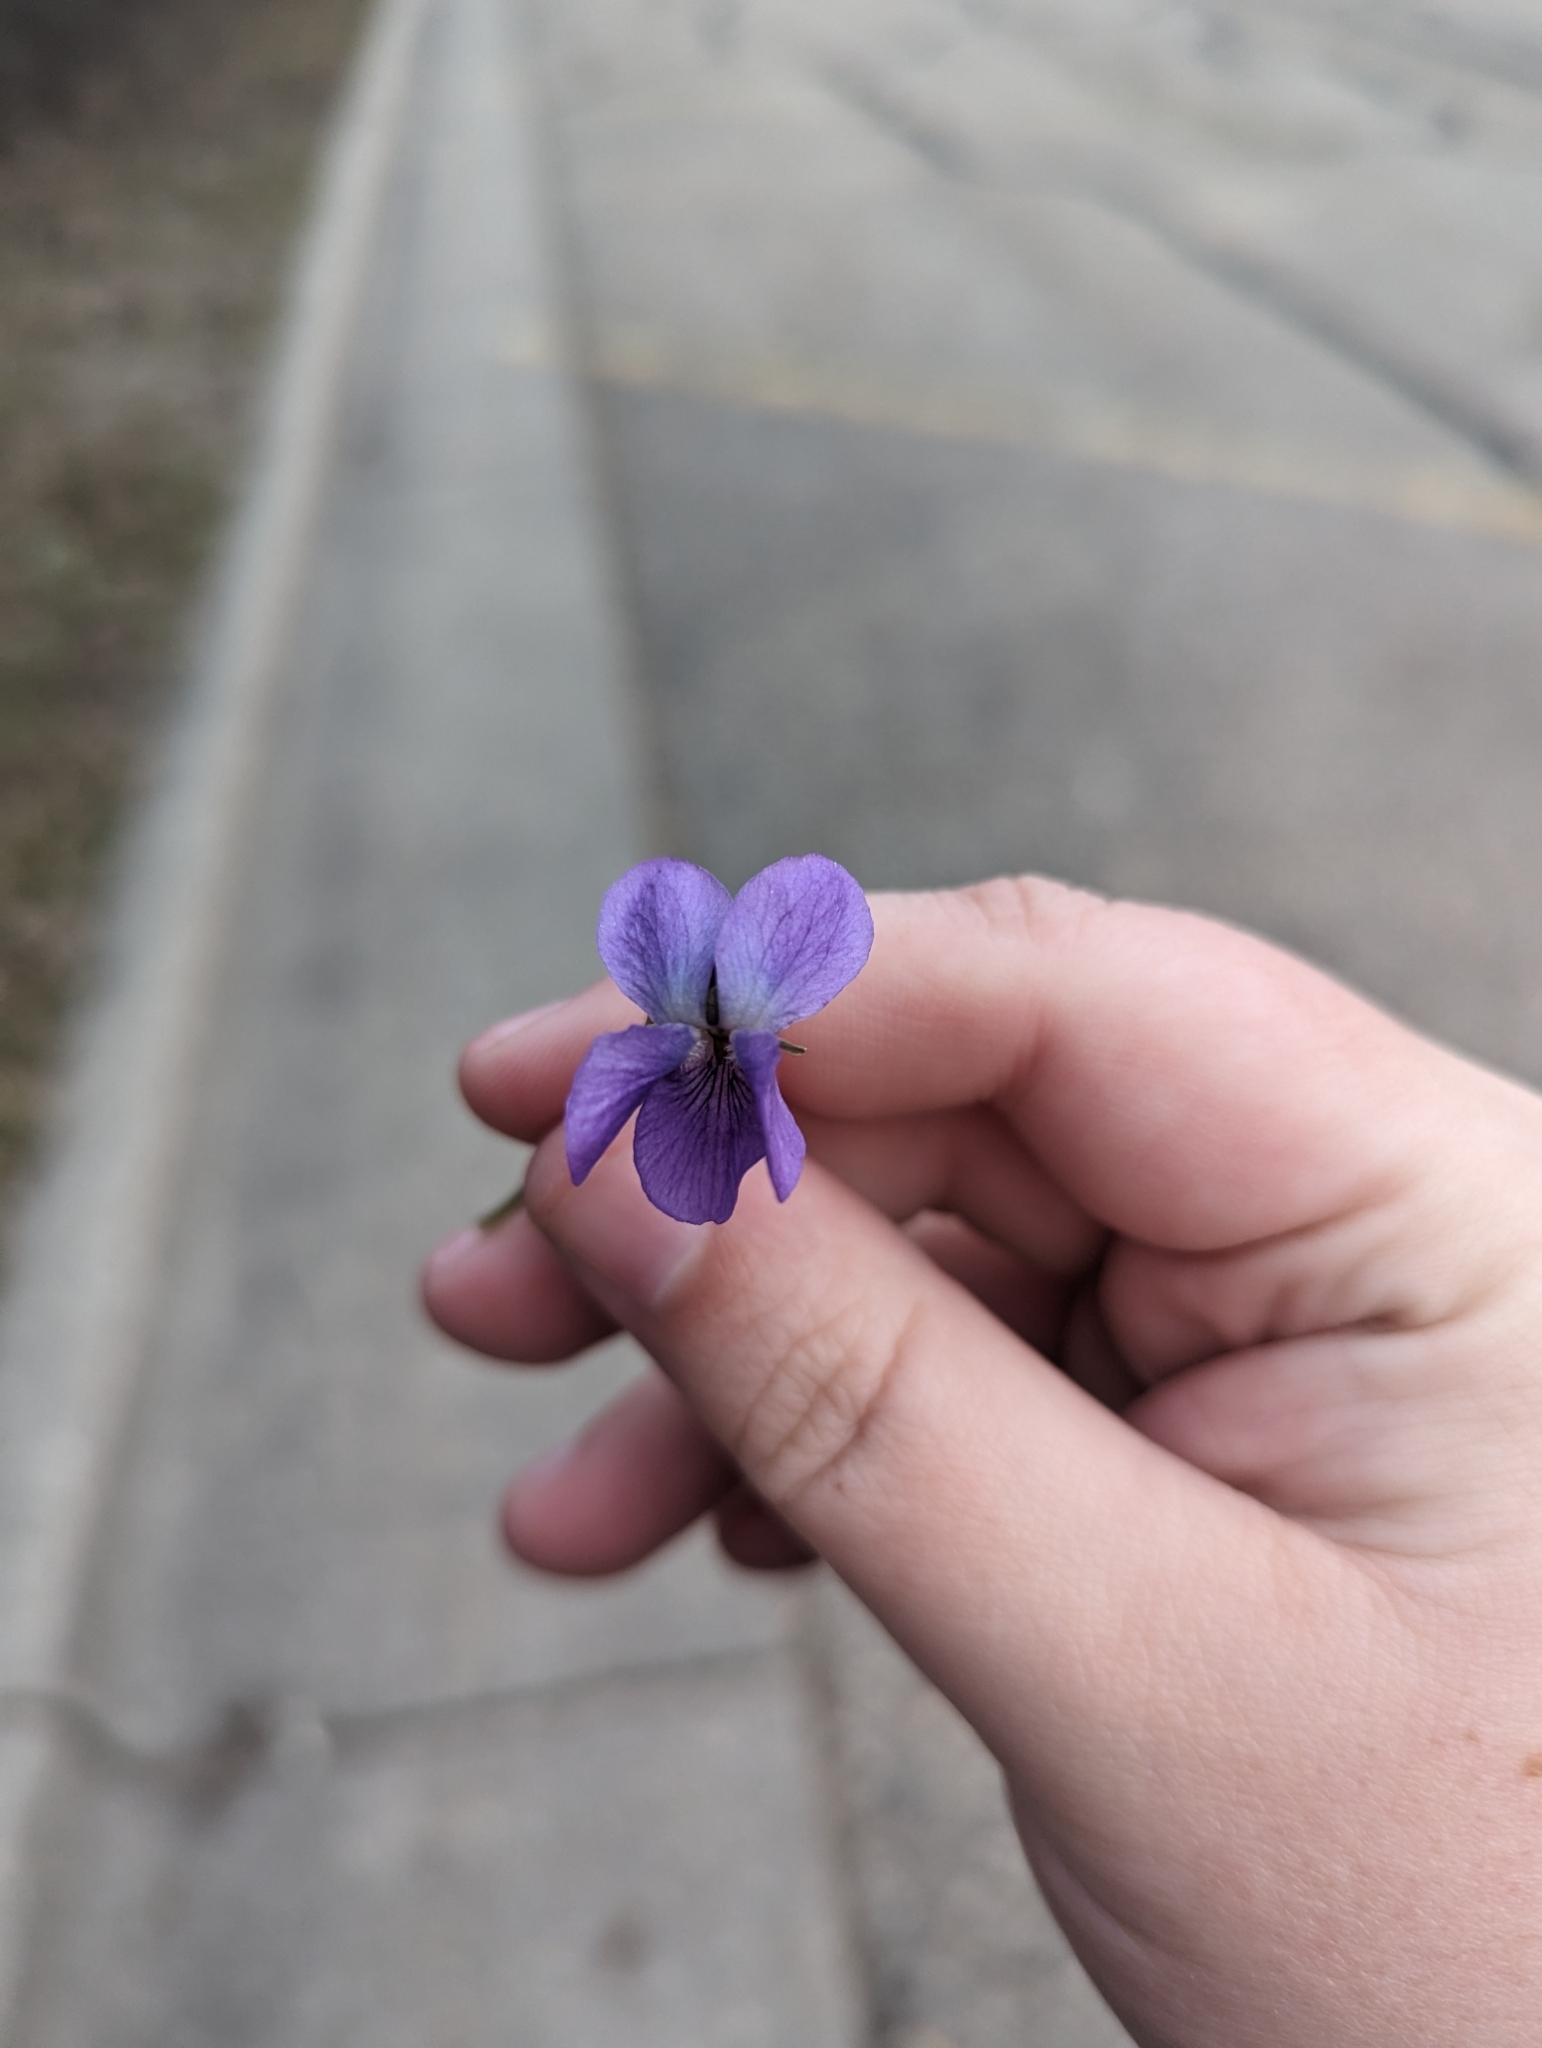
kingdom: Plantae
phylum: Tracheophyta
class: Magnoliopsida
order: Malpighiales
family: Violaceae
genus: Viola
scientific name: Viola odorata
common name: Sweet violet
